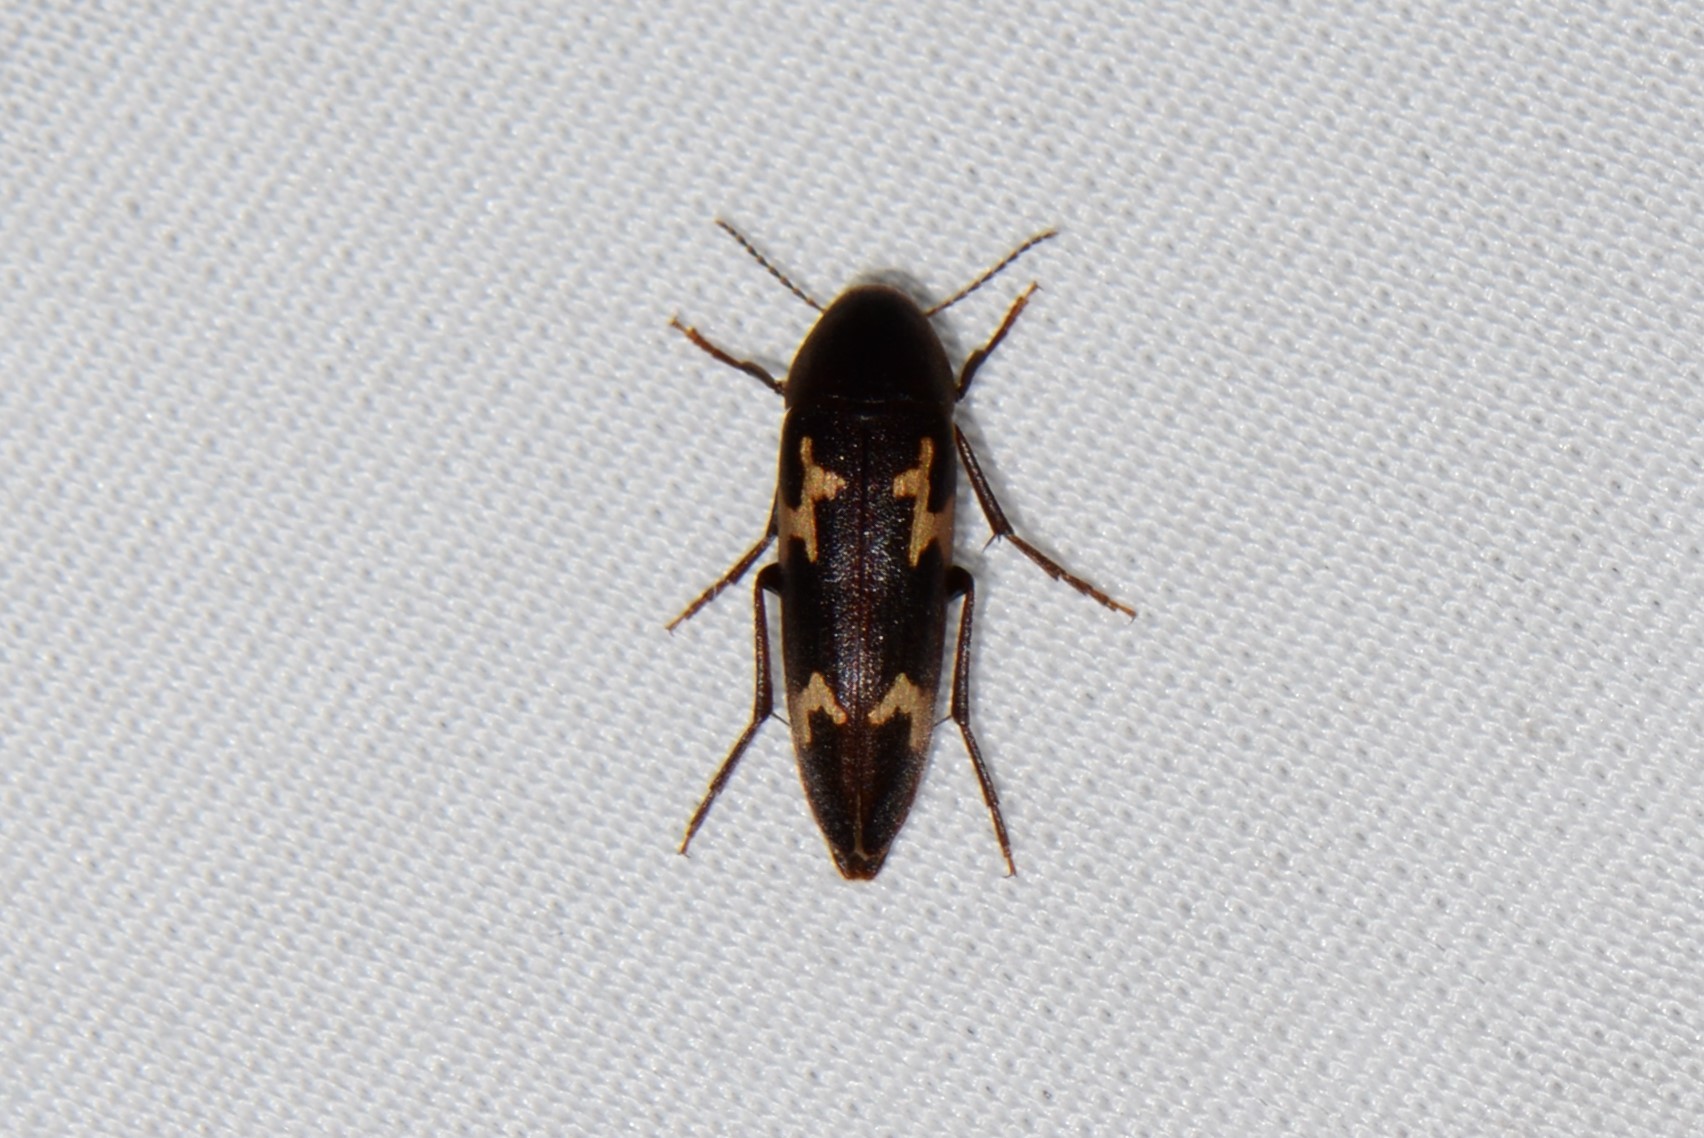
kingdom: Animalia
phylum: Arthropoda
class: Insecta
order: Coleoptera
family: Melandryidae
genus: Dircaea
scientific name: Dircaea liturata
